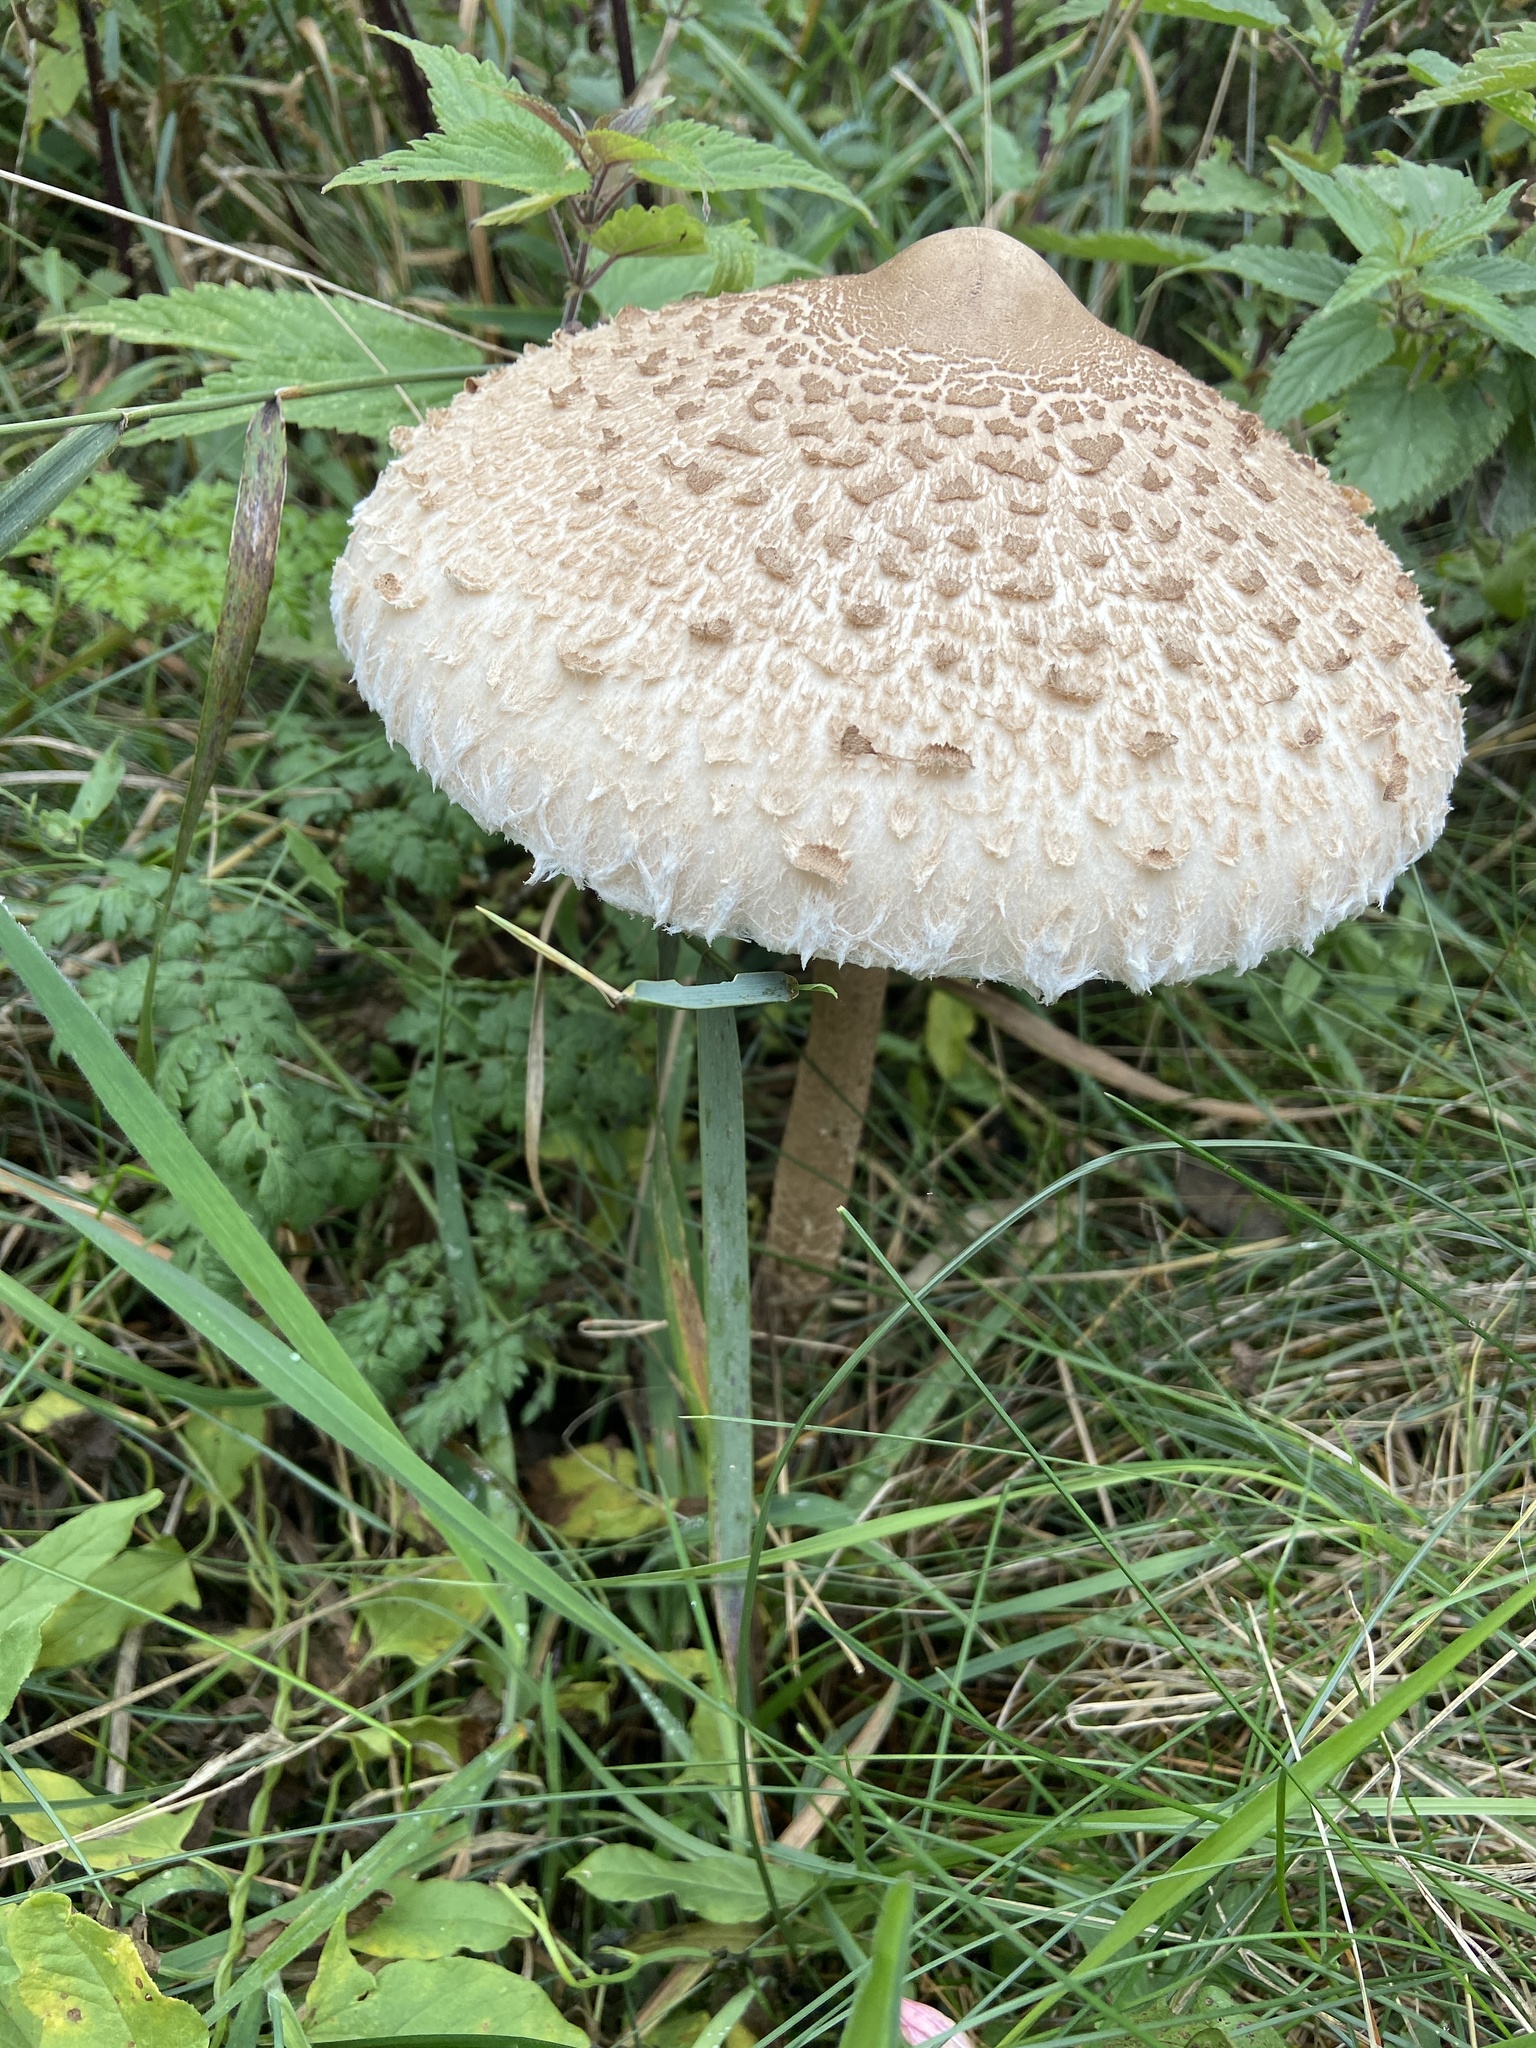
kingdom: Fungi
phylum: Basidiomycota
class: Agaricomycetes
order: Agaricales
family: Agaricaceae
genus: Macrolepiota
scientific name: Macrolepiota procera
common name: Parasol
